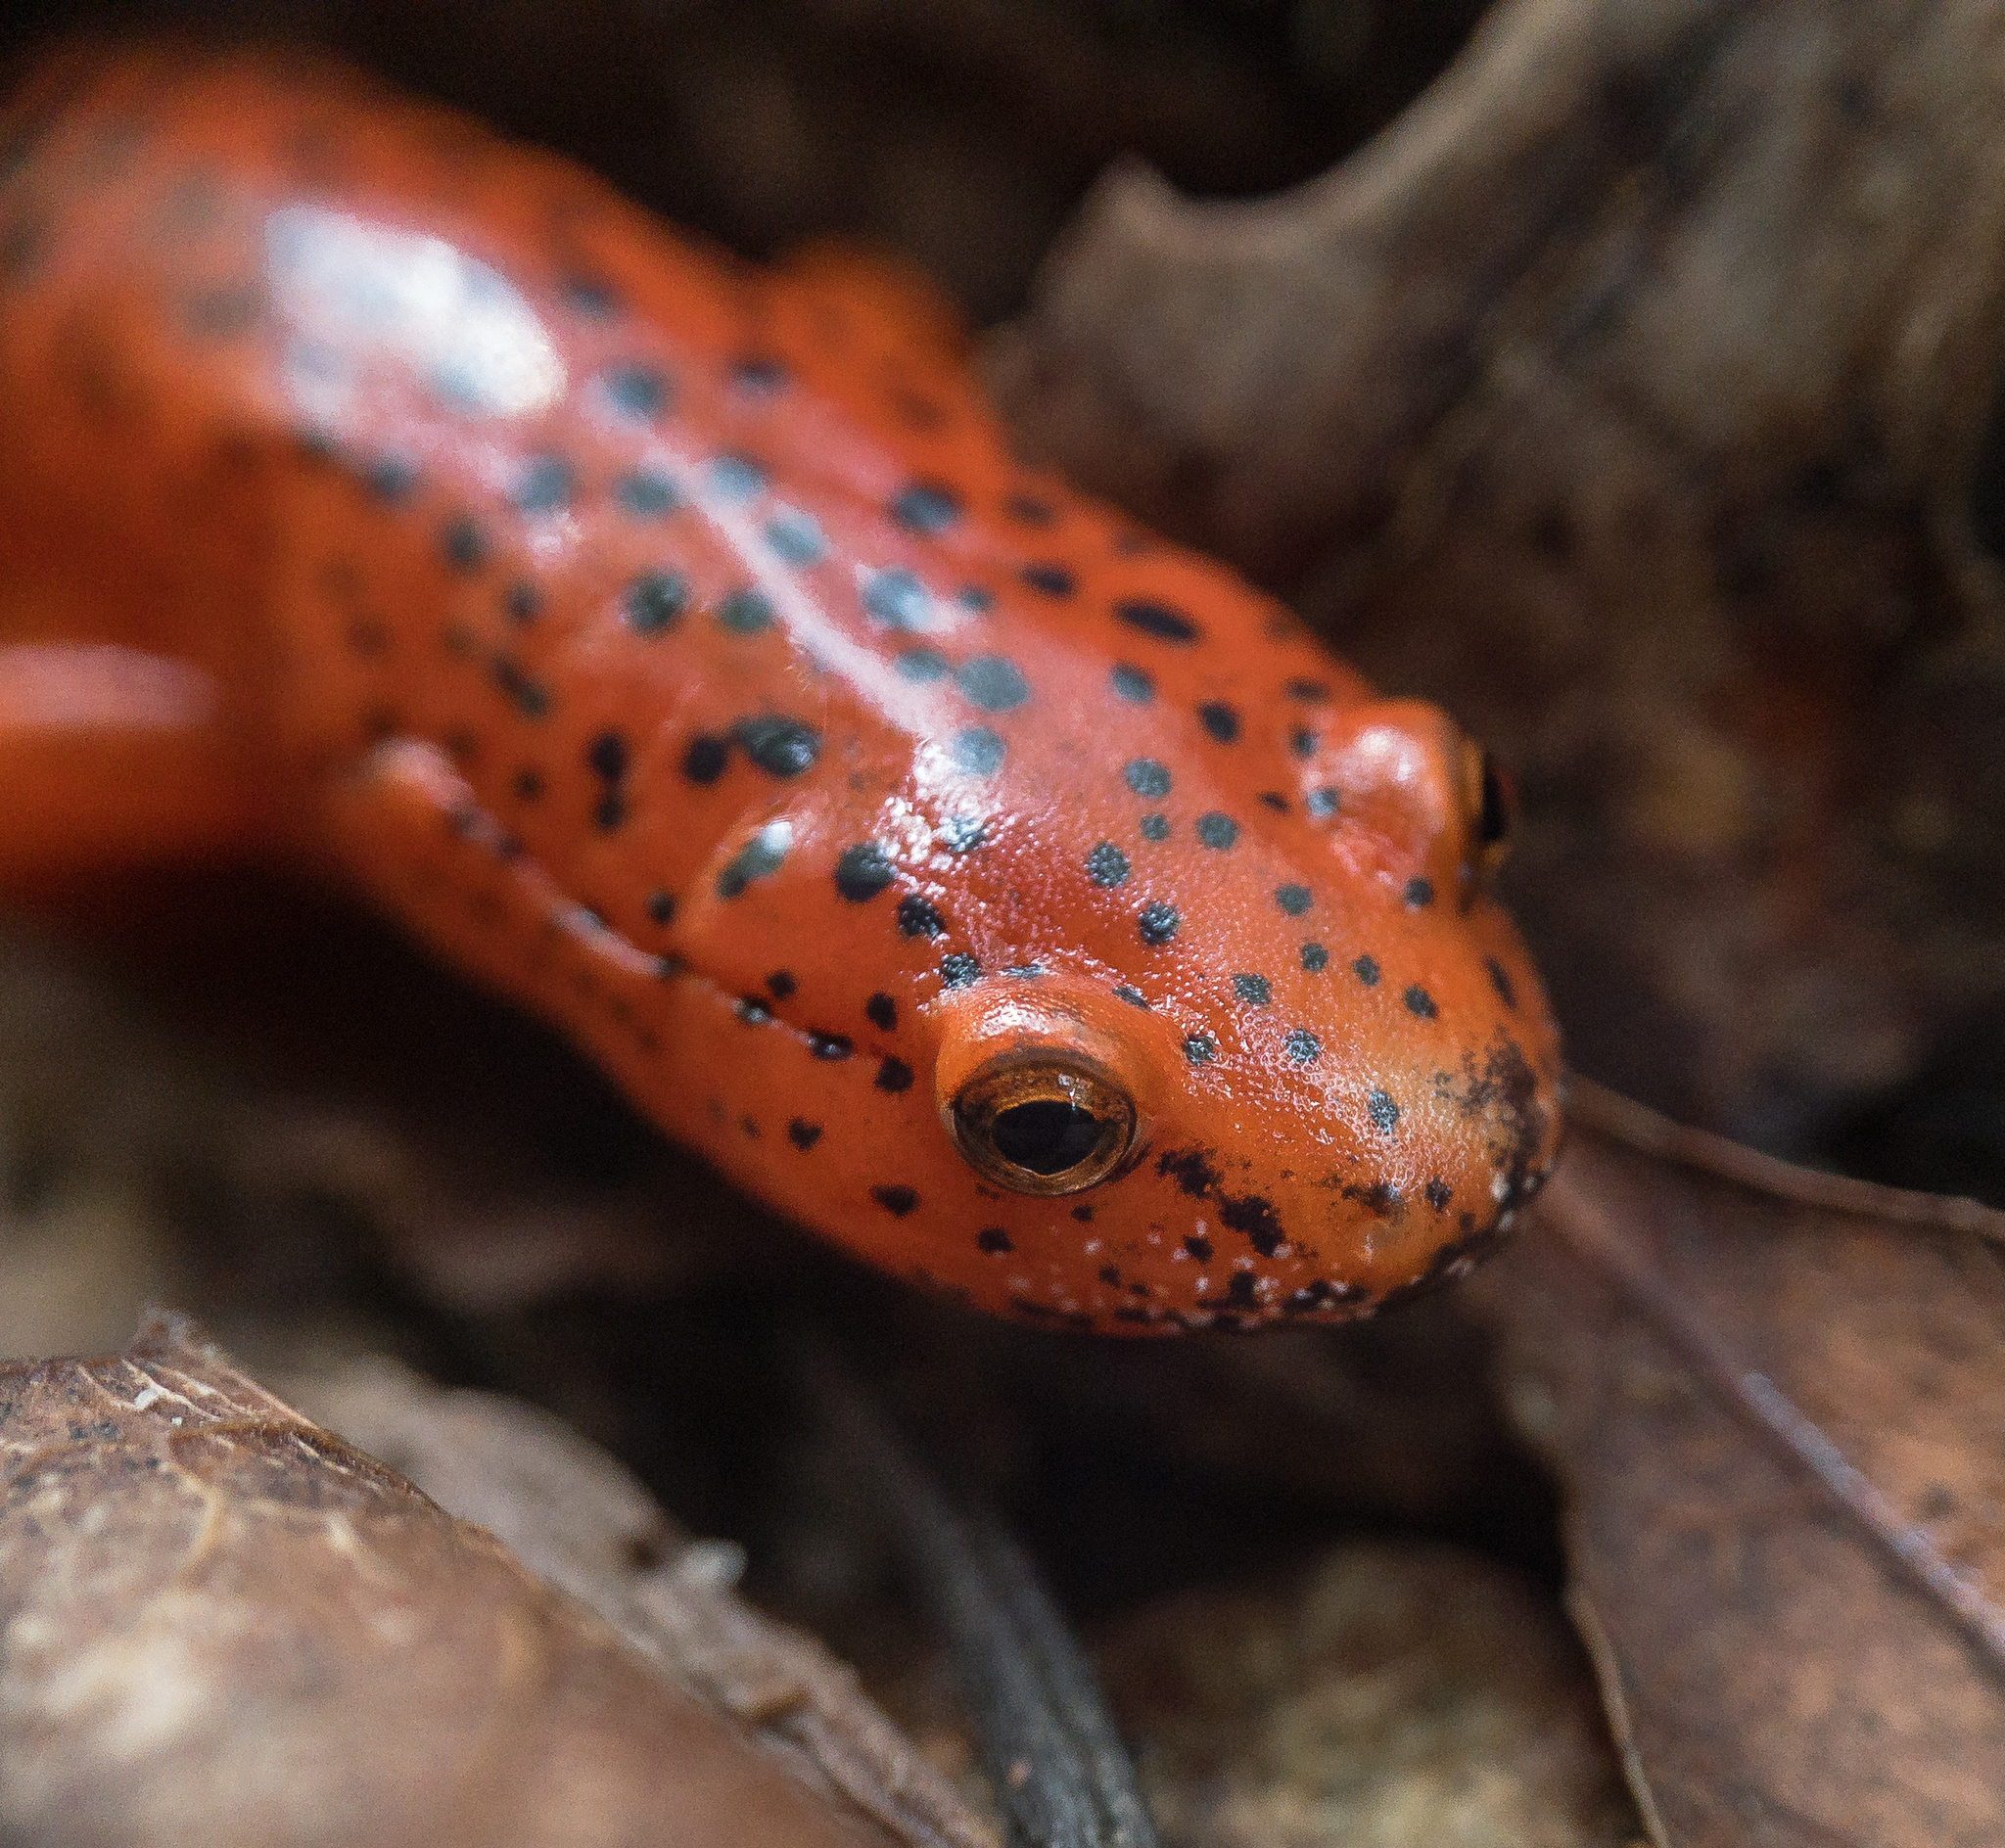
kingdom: Animalia
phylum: Chordata
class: Amphibia
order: Caudata
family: Plethodontidae
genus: Pseudotriton
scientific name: Pseudotriton ruber
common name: Red salamander
